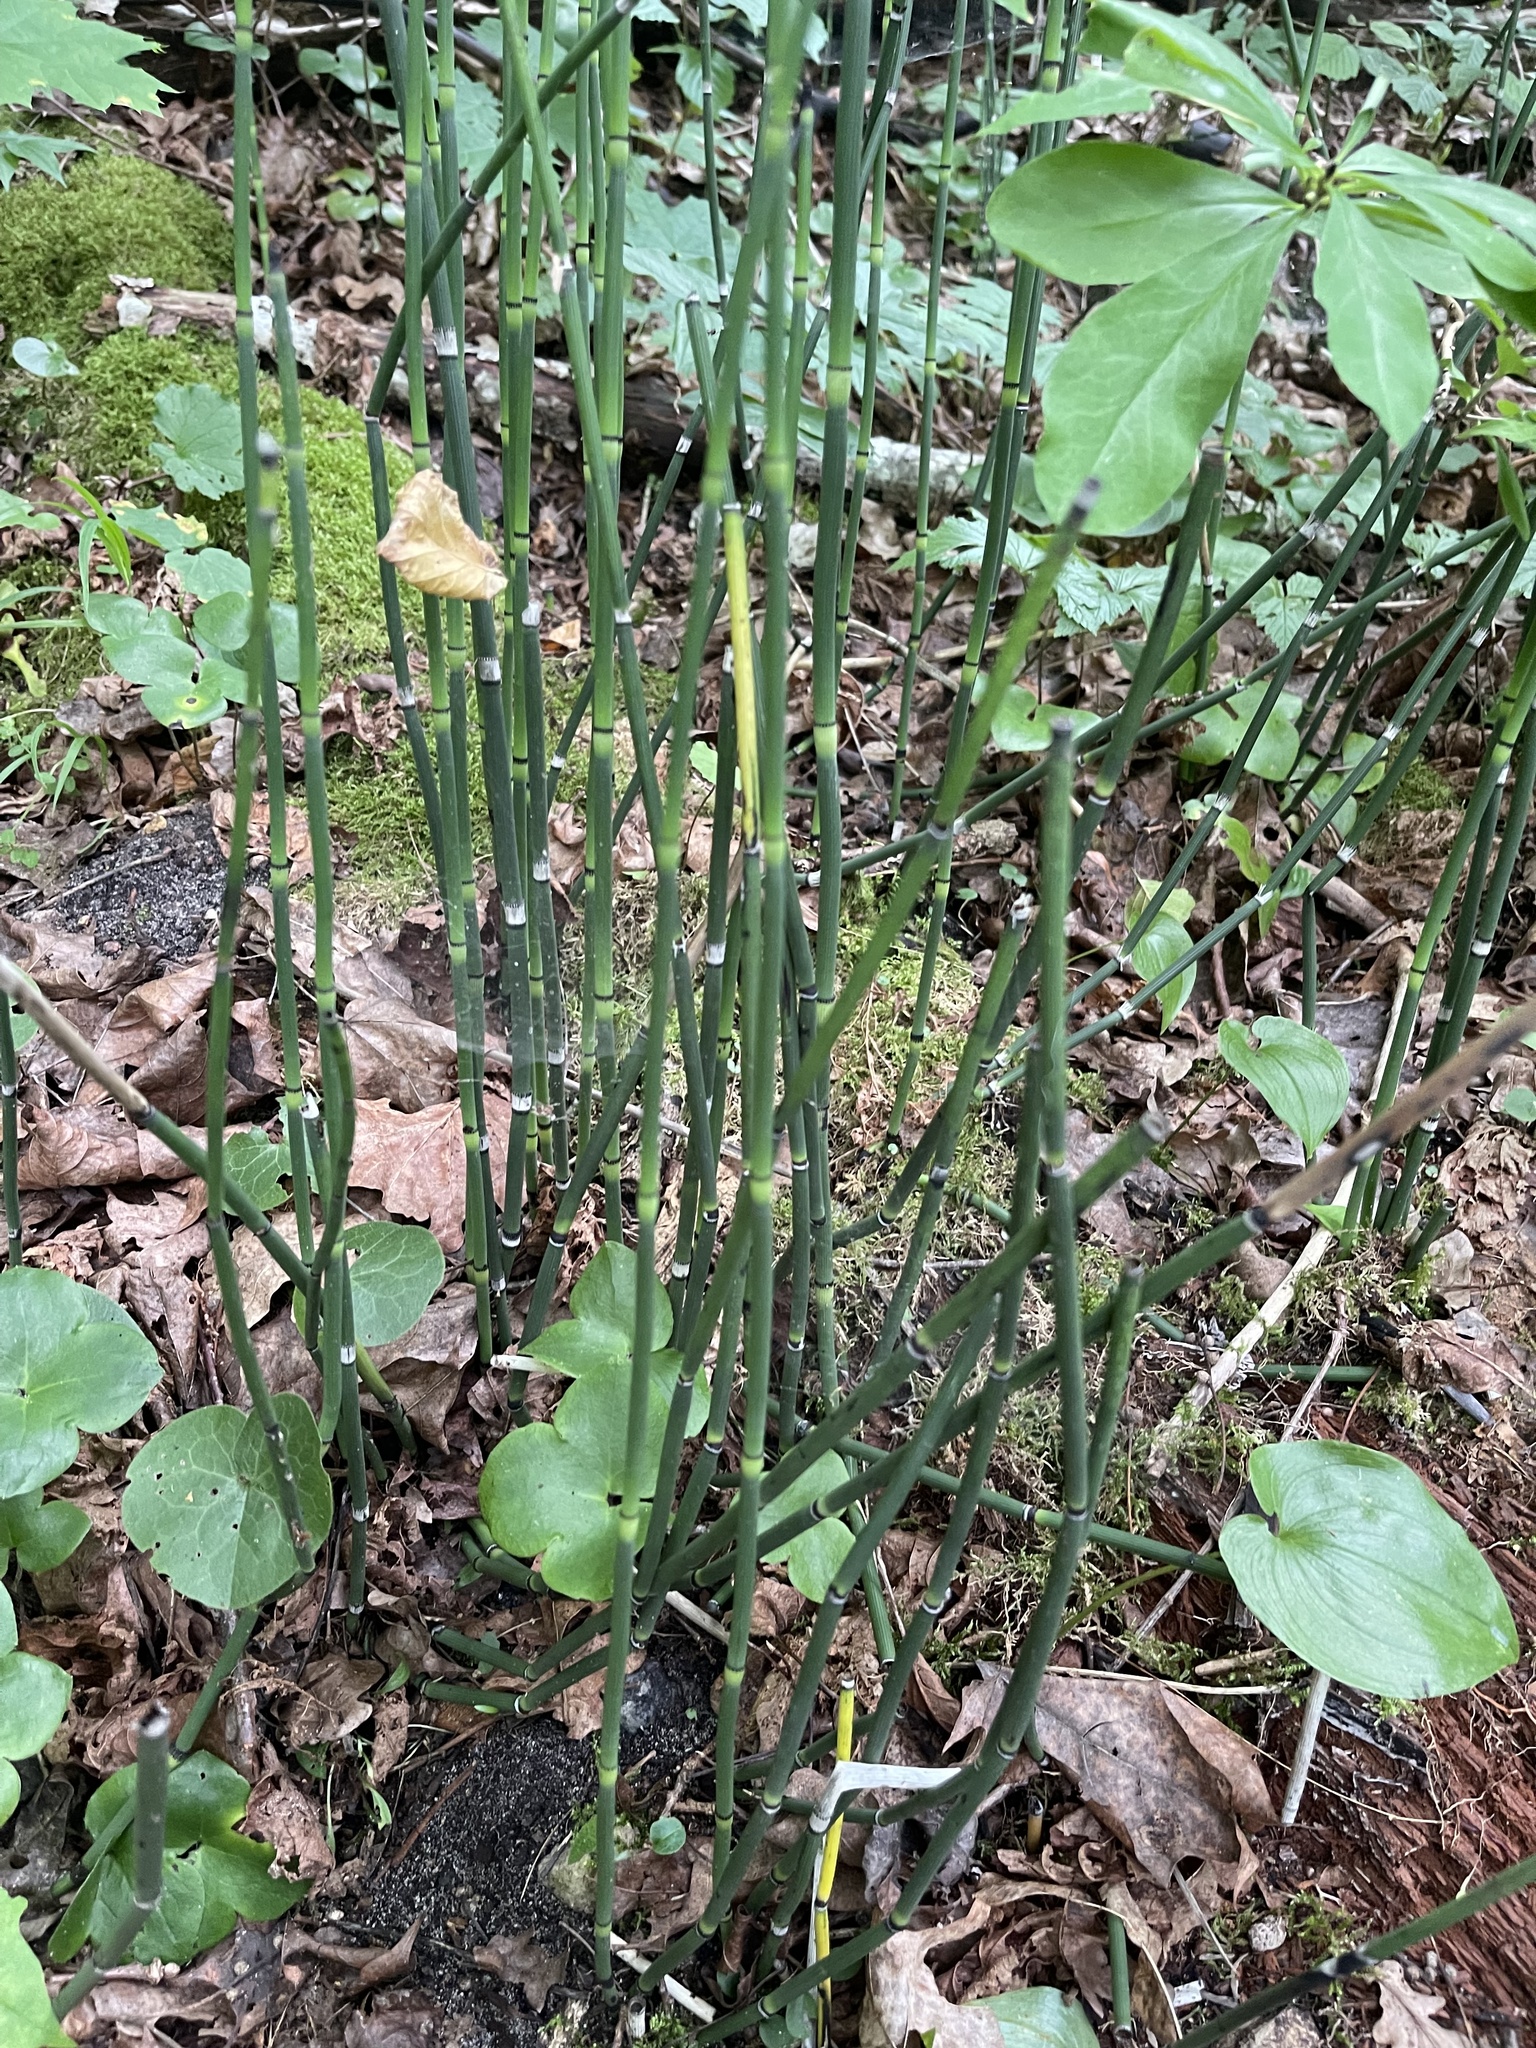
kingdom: Plantae
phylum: Tracheophyta
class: Polypodiopsida
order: Equisetales
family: Equisetaceae
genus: Equisetum
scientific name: Equisetum hyemale
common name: Rough horsetail
